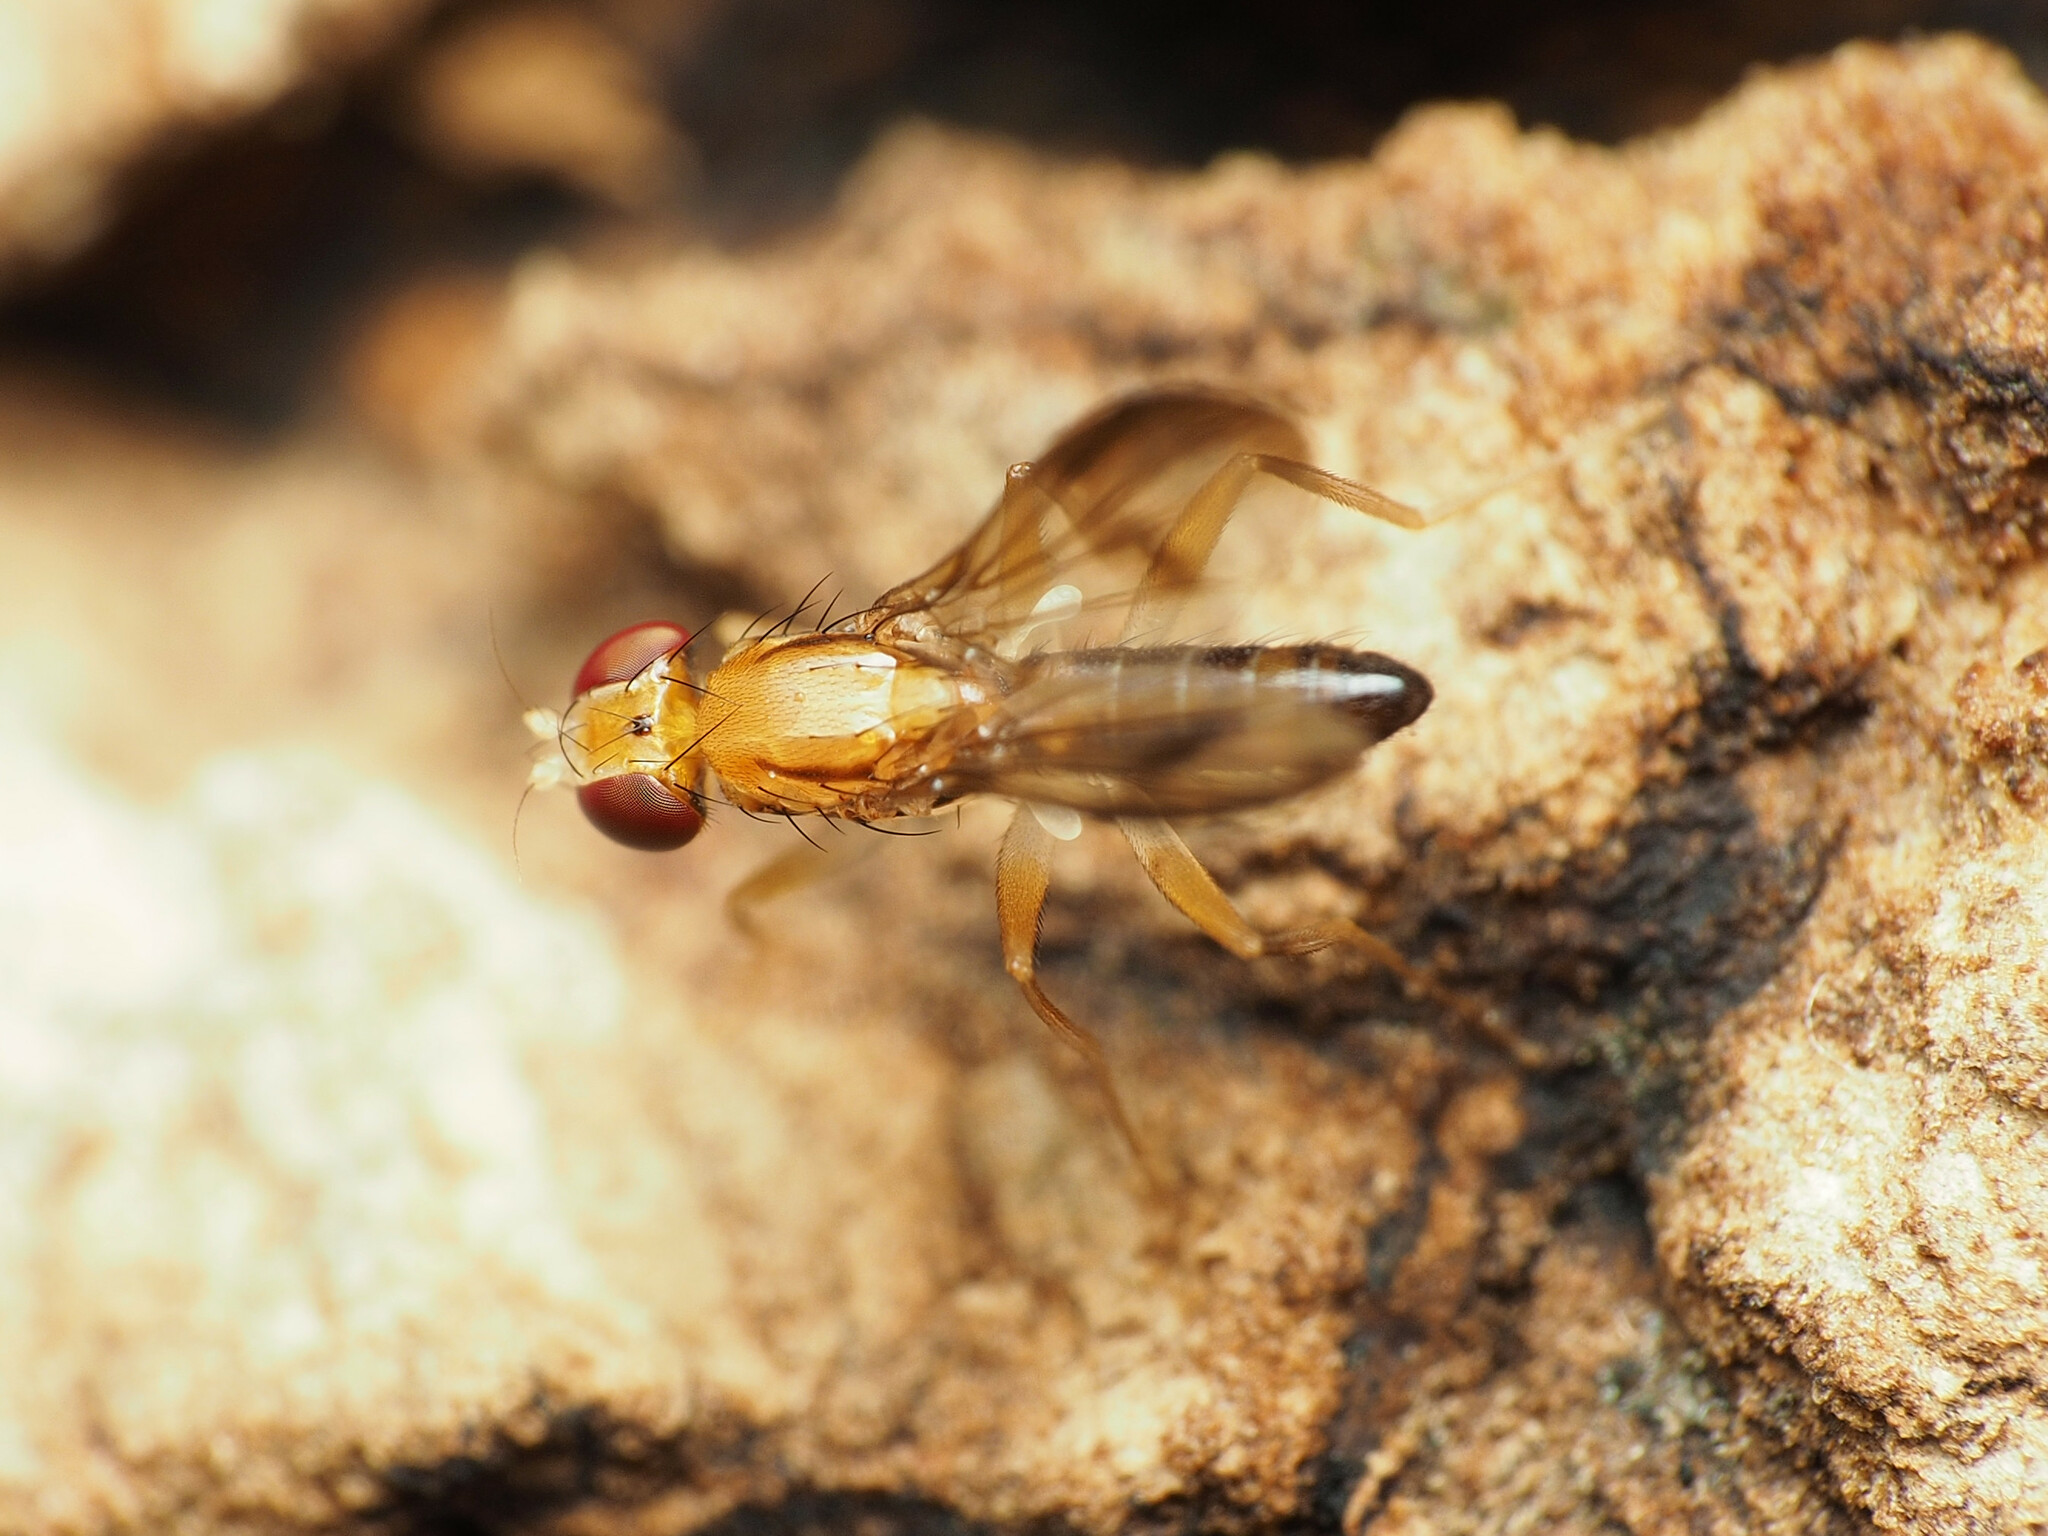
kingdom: Animalia
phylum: Arthropoda
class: Insecta
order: Diptera
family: Clusiidae
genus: Clusia
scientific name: Clusia czernyi
